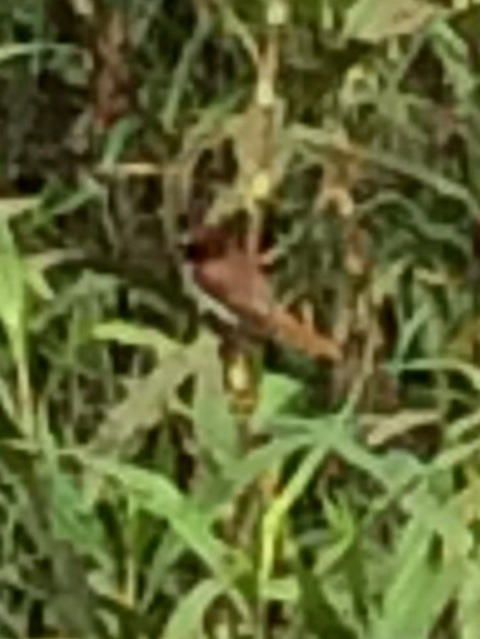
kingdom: Animalia
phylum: Chordata
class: Aves
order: Passeriformes
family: Estrildidae
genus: Lonchura
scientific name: Lonchura punctulata
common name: Scaly-breasted munia
